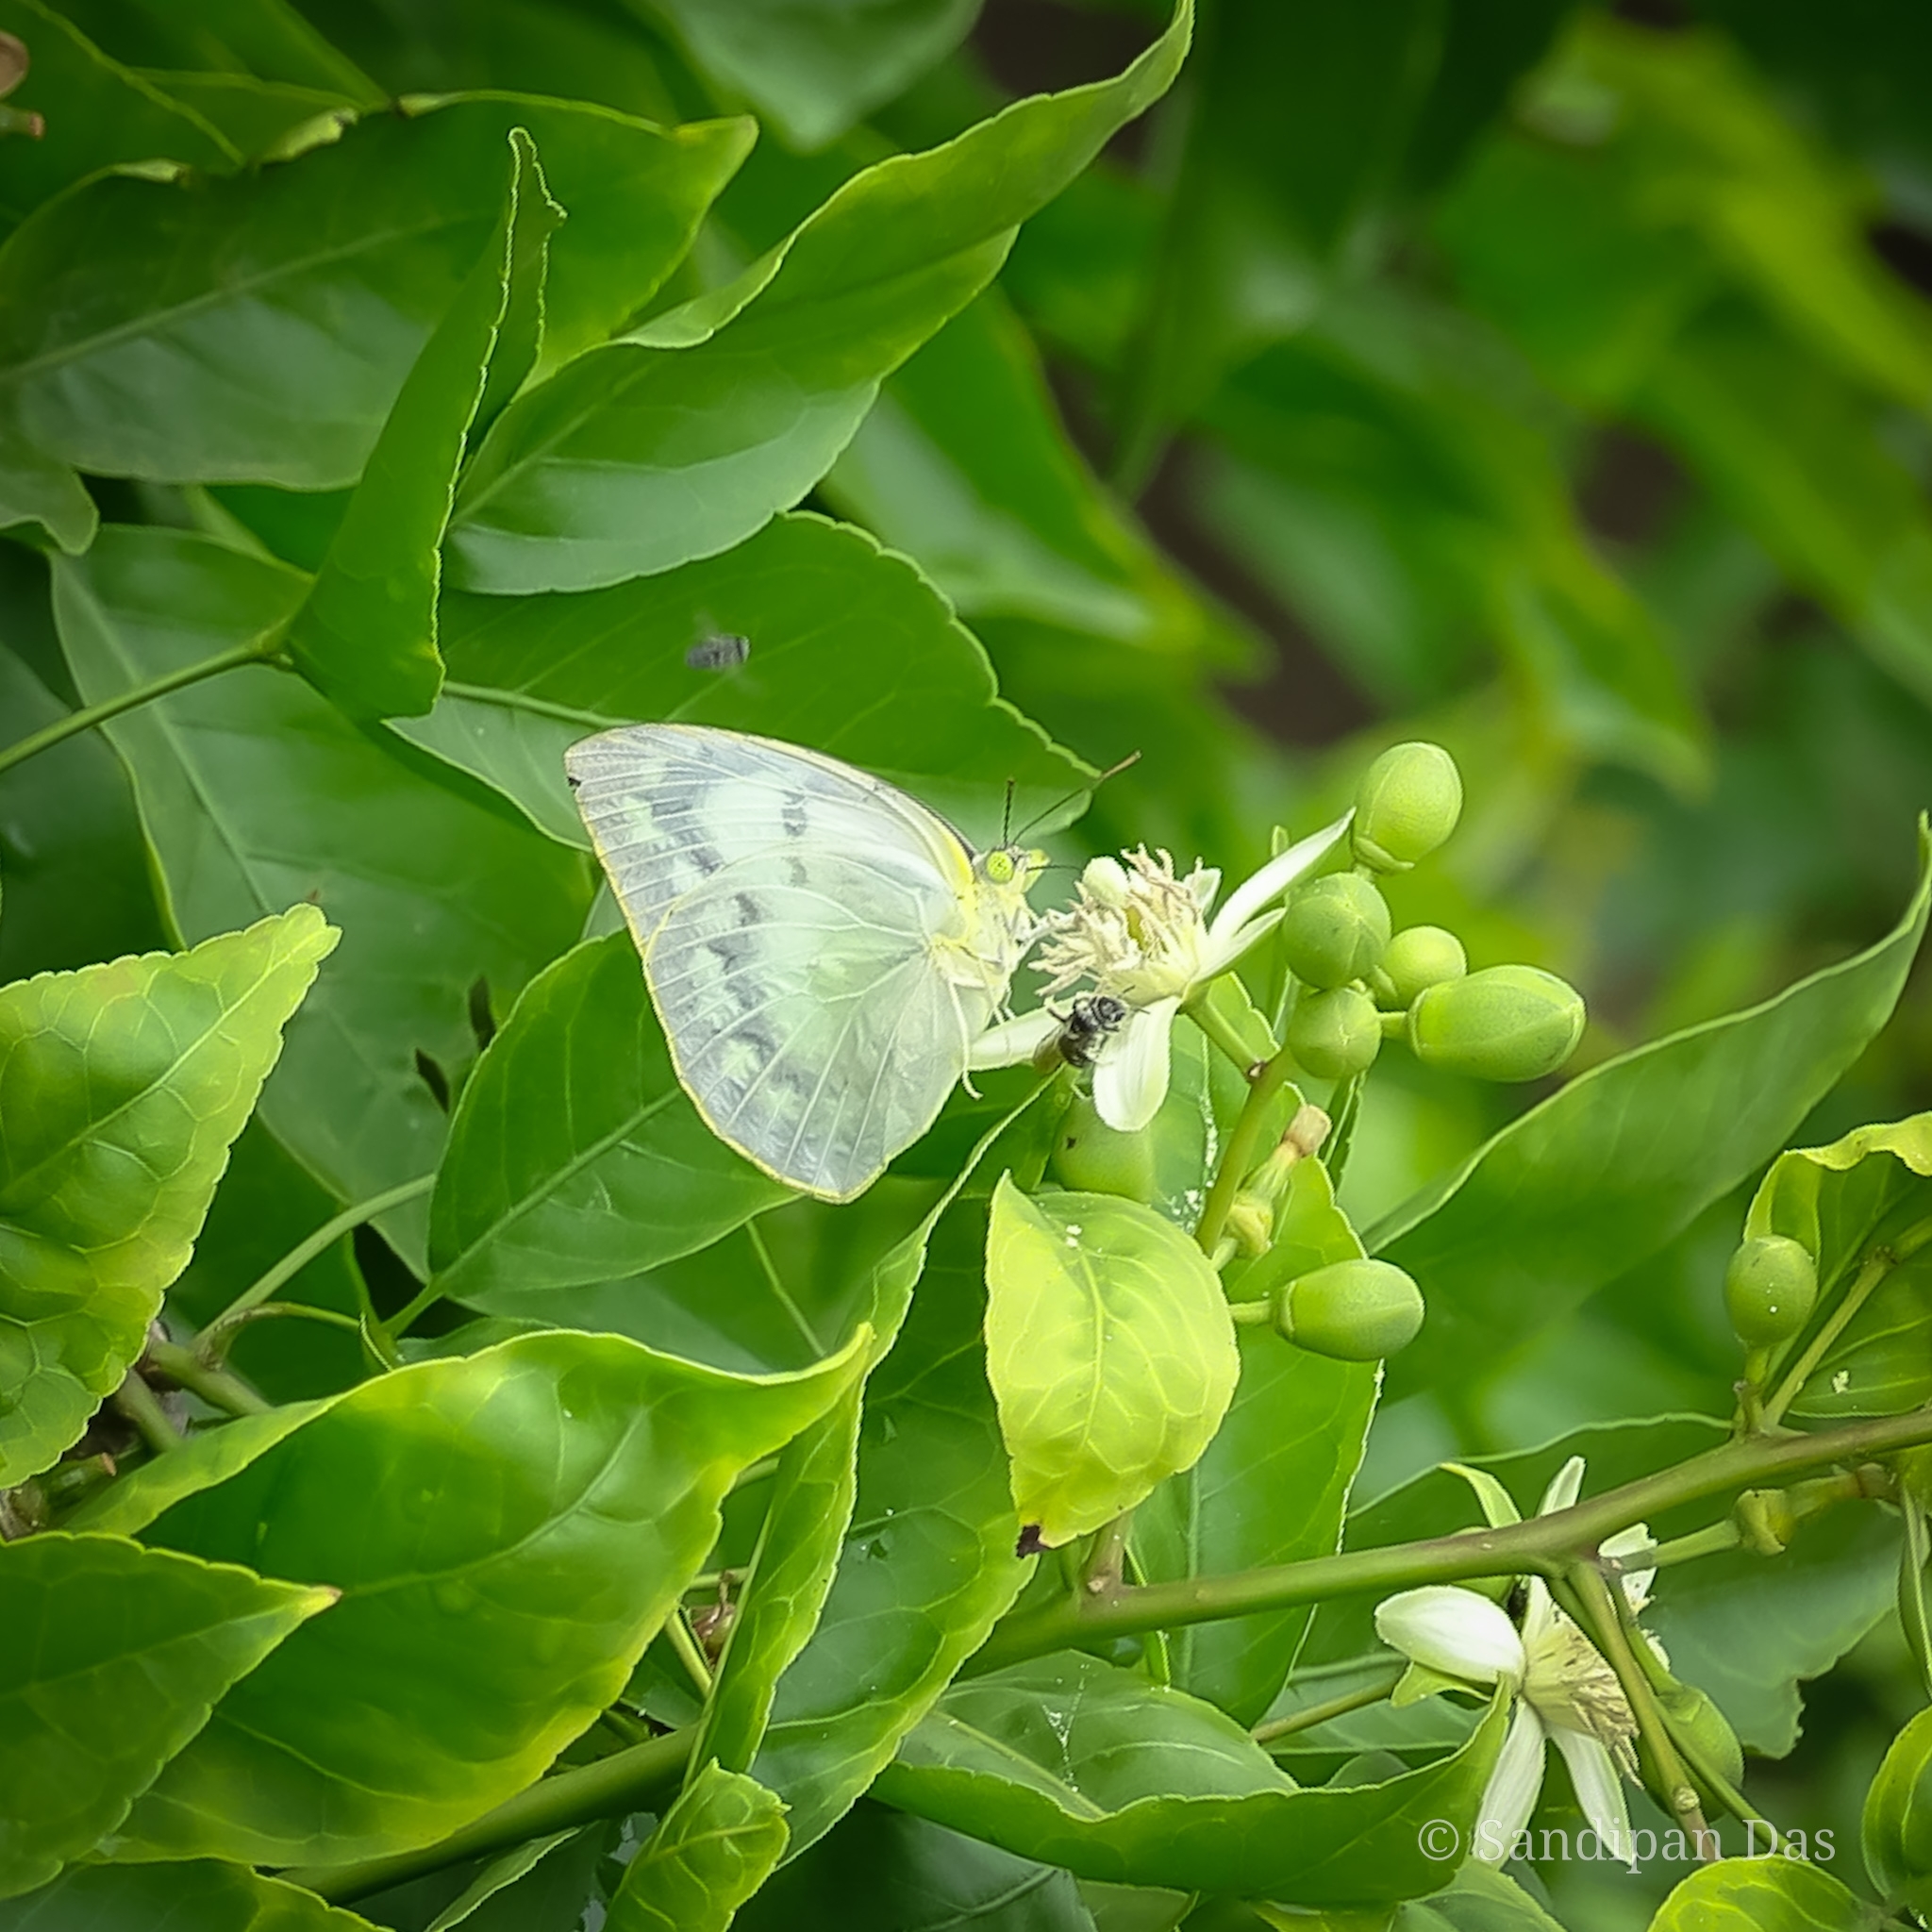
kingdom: Animalia
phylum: Arthropoda
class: Insecta
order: Lepidoptera
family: Pieridae
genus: Catopsilia
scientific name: Catopsilia pomona
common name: Common emigrant
